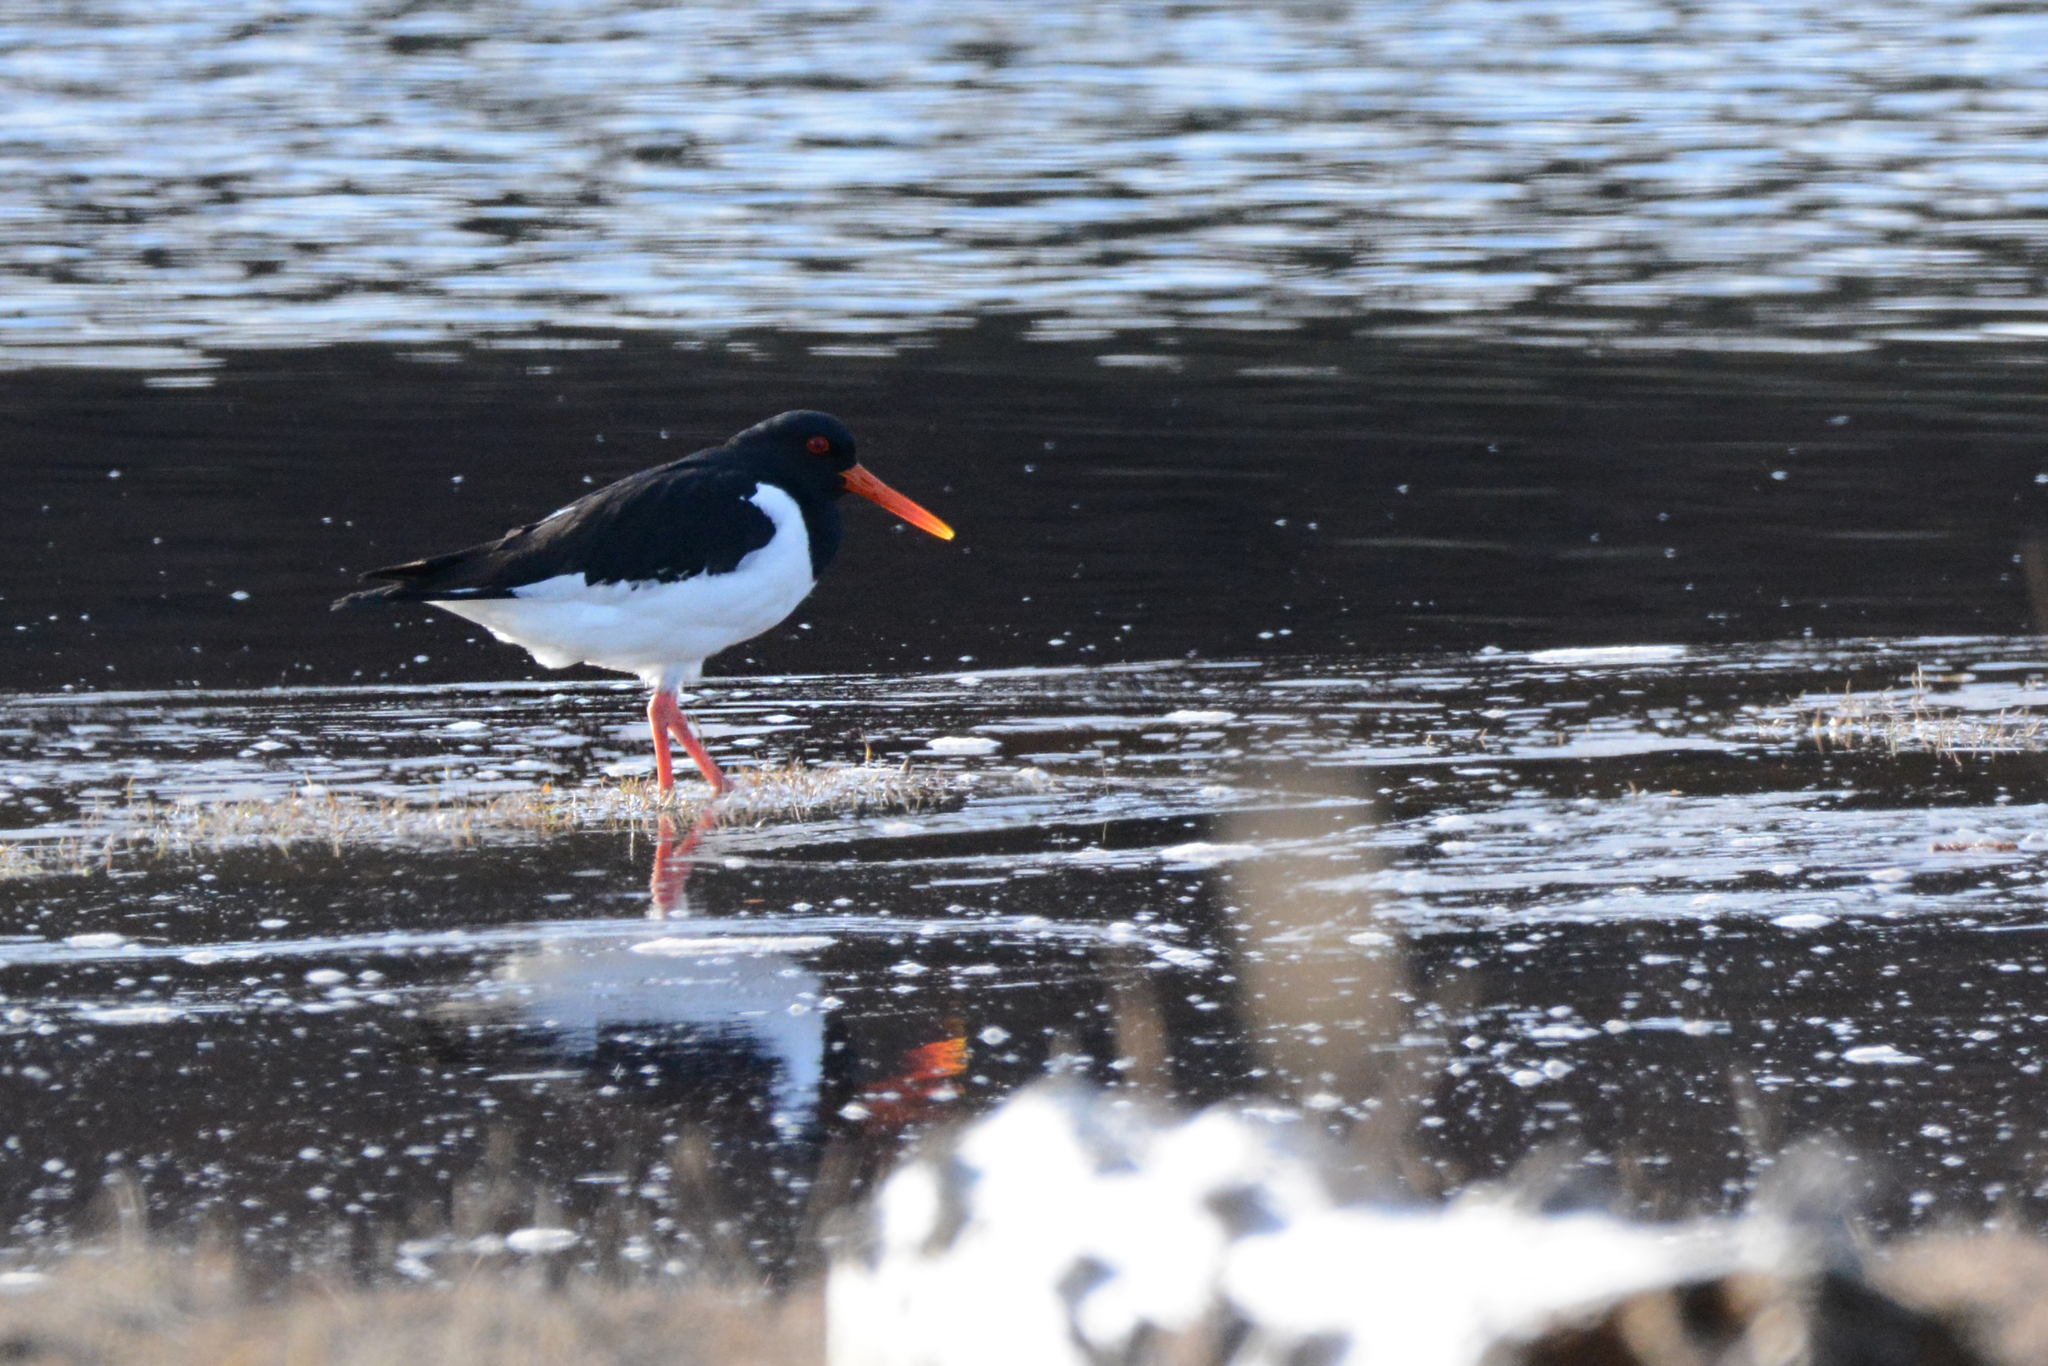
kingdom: Animalia
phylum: Chordata
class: Aves
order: Charadriiformes
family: Haematopodidae
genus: Haematopus
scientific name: Haematopus ostralegus
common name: Eurasian oystercatcher
